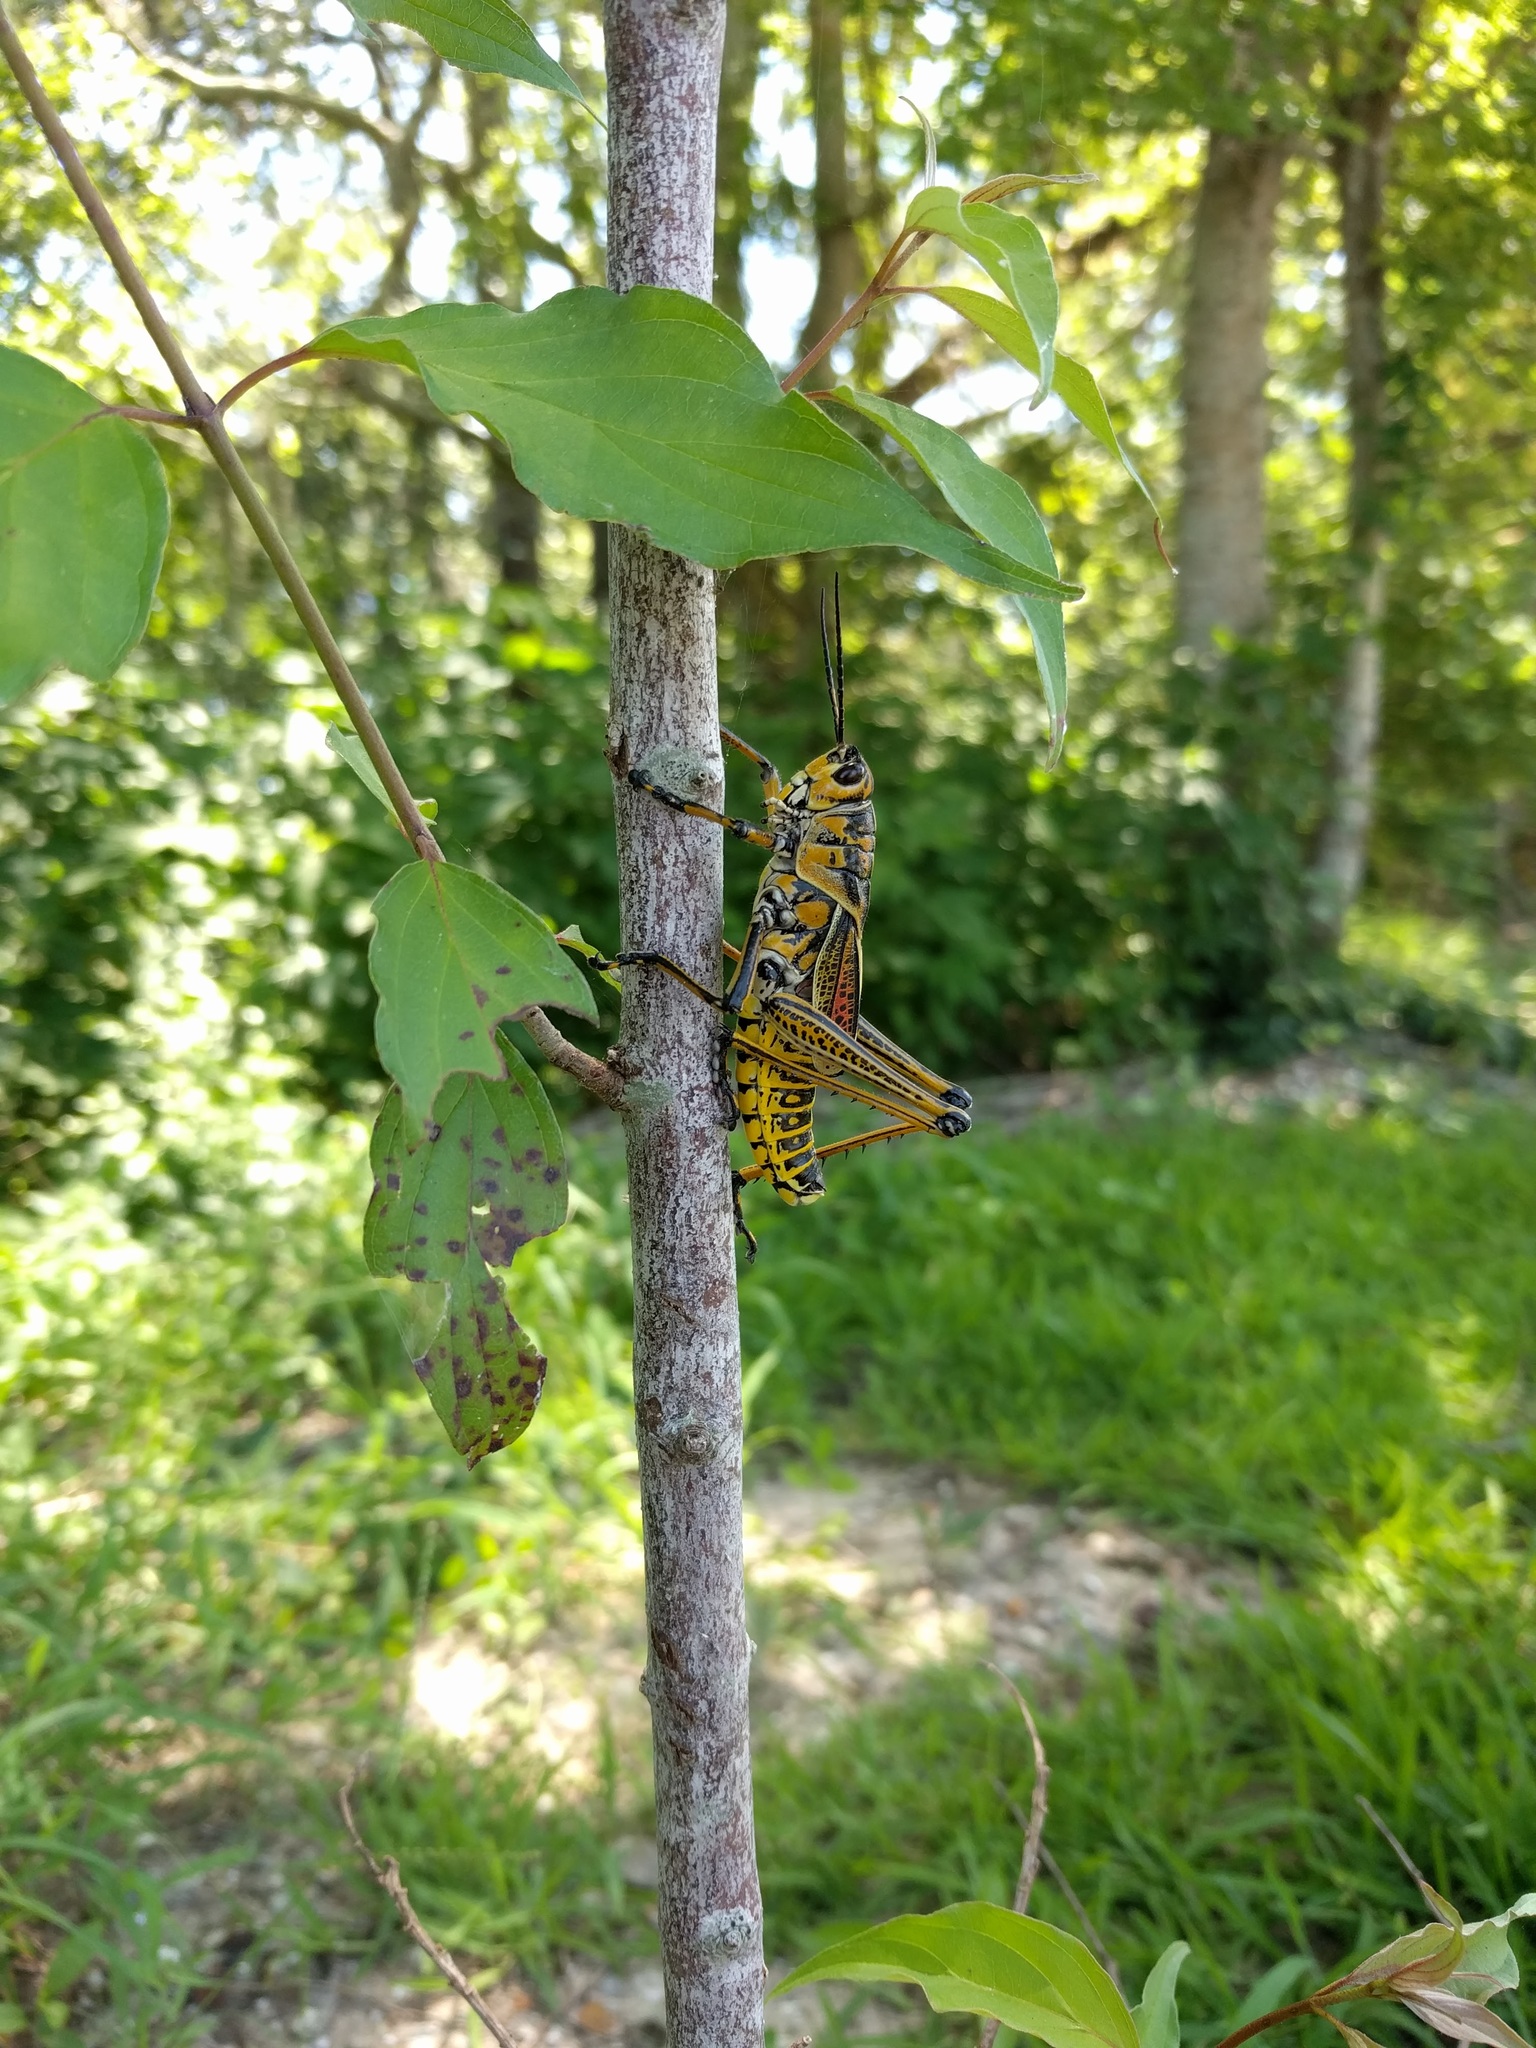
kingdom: Animalia
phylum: Arthropoda
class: Insecta
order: Orthoptera
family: Romaleidae
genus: Romalea
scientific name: Romalea microptera
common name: Eastern lubber grasshopper
